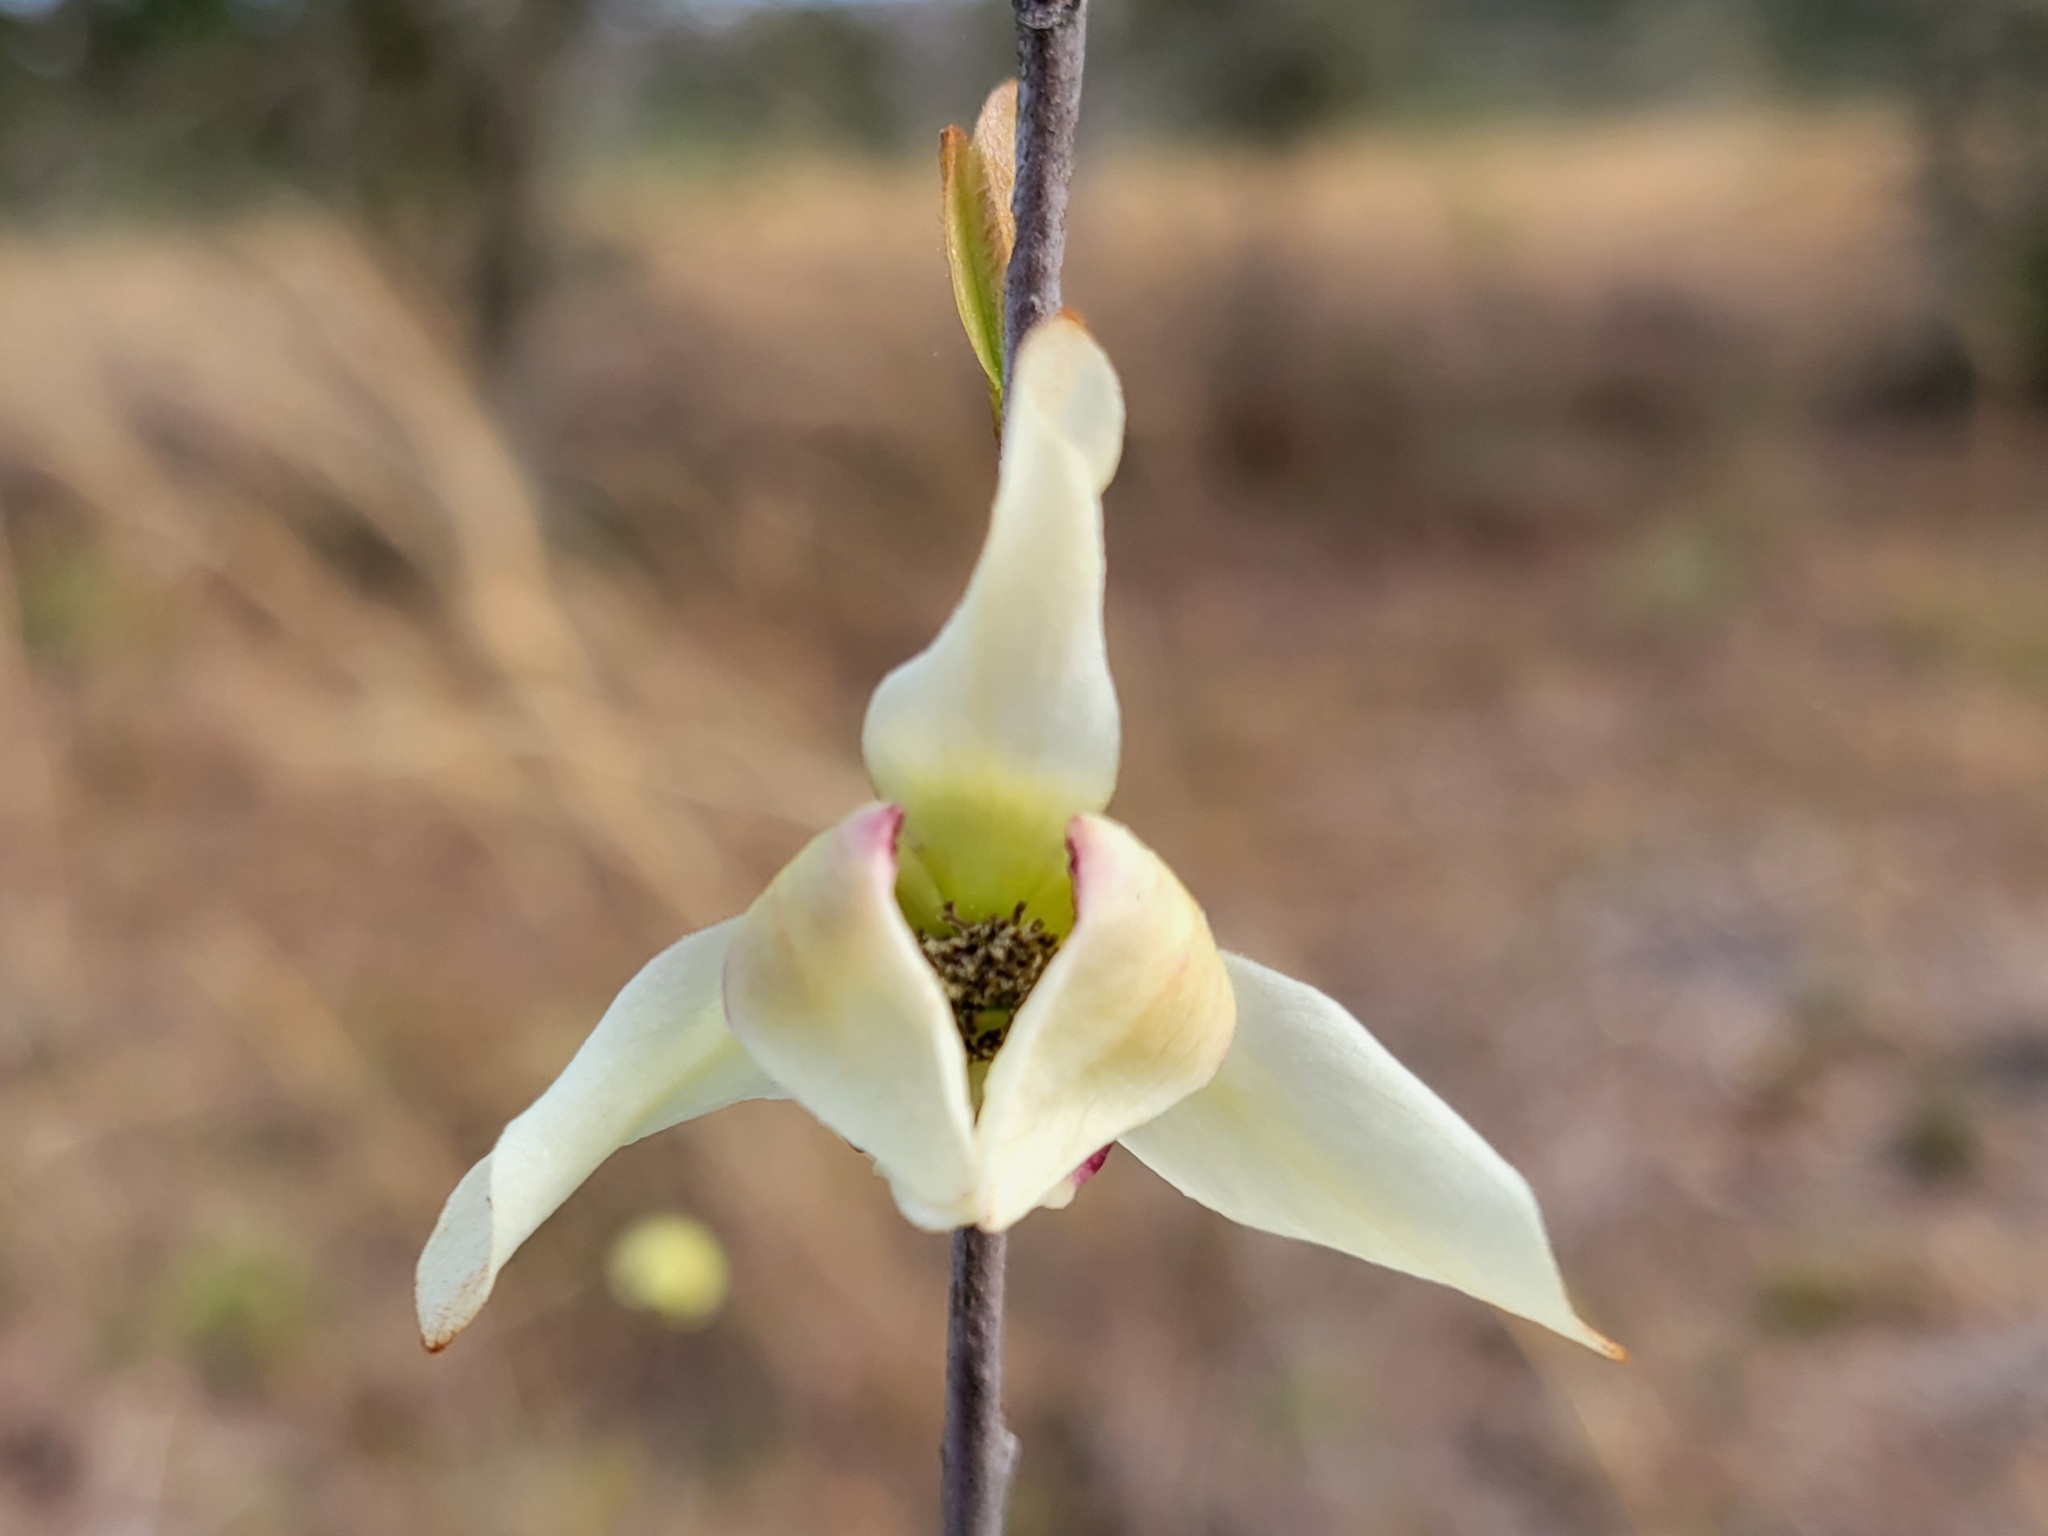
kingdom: Plantae
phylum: Tracheophyta
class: Magnoliopsida
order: Magnoliales
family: Annonaceae
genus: Asimina
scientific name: Asimina reticulata
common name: Flag pawpaw
